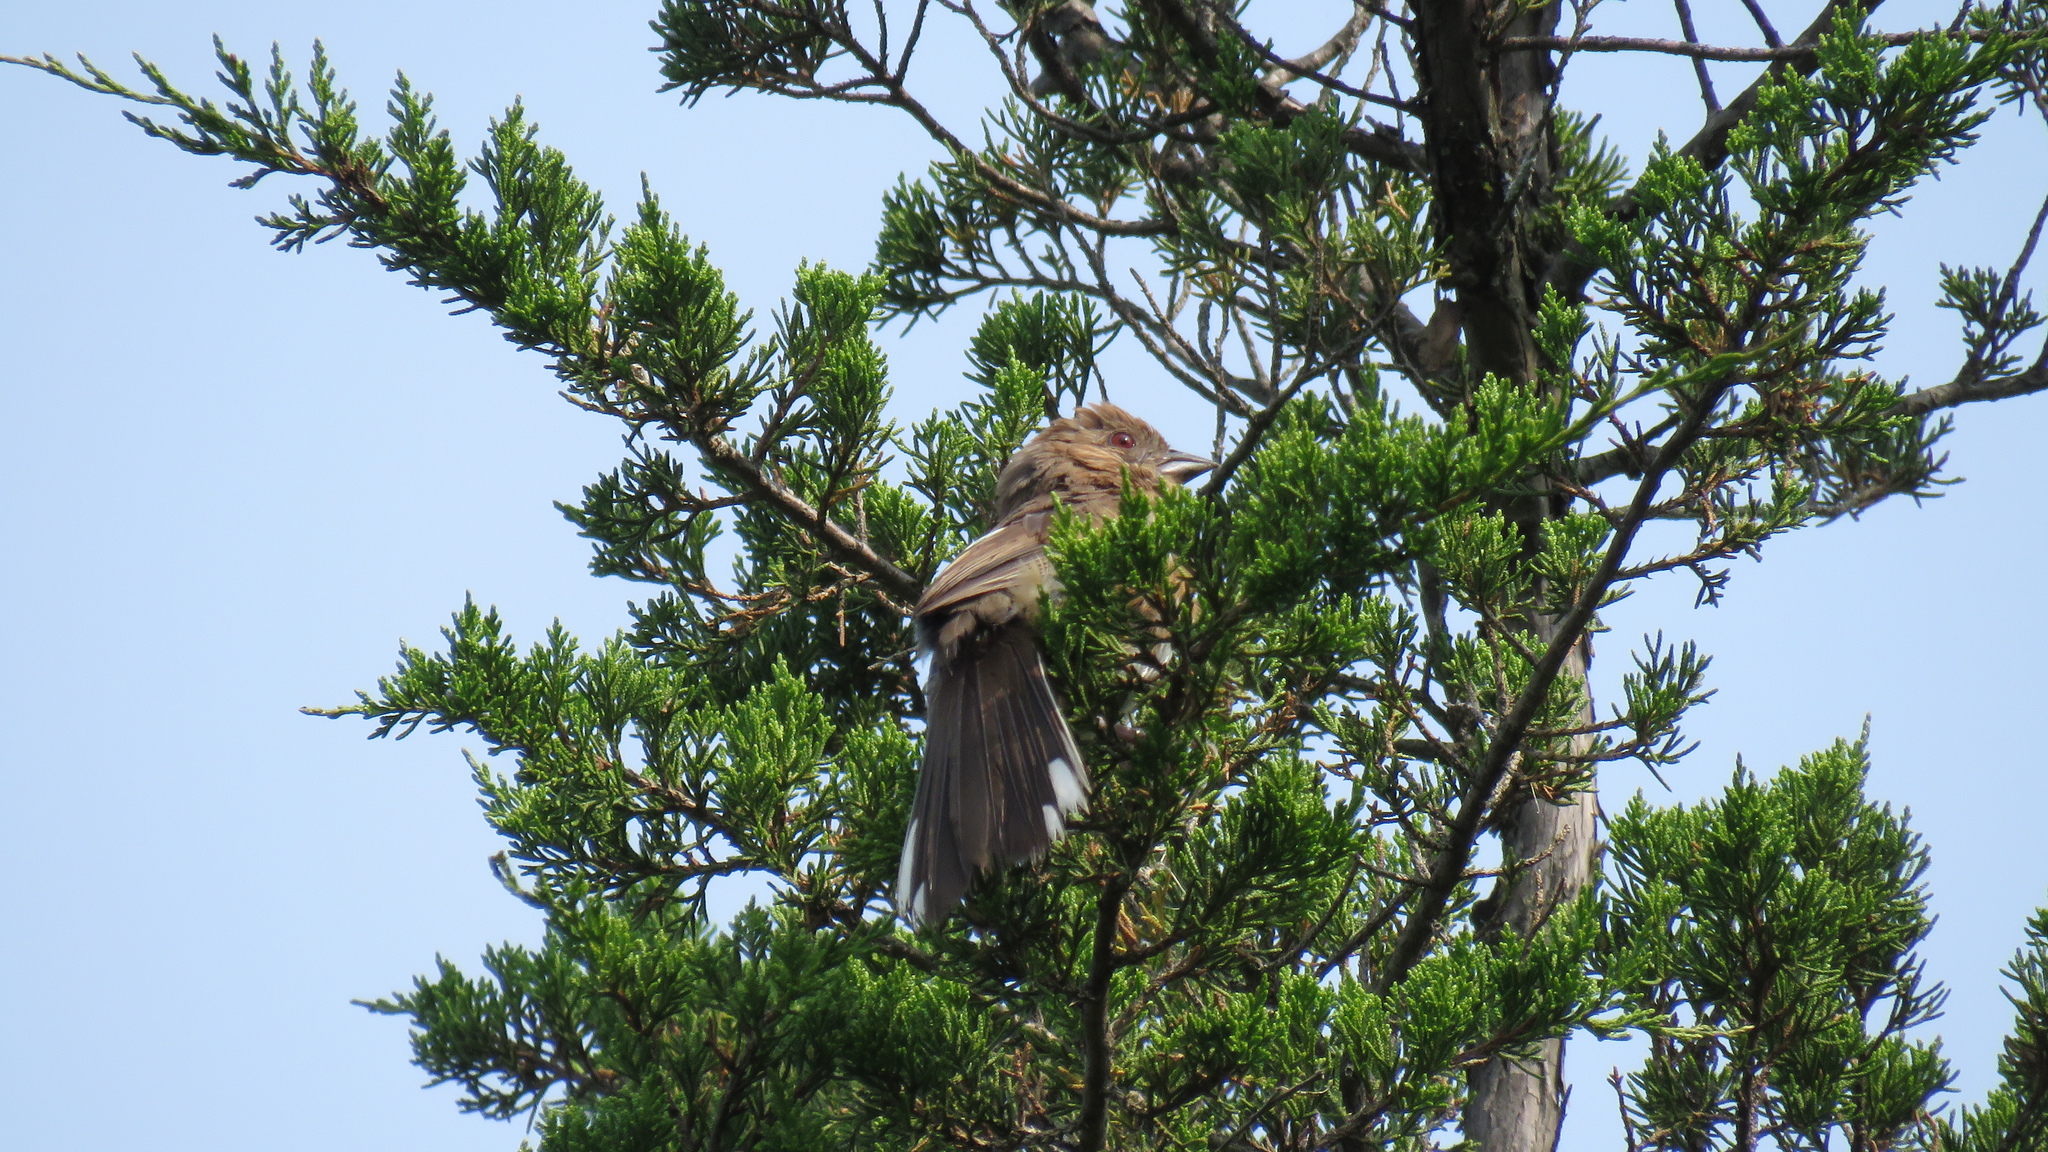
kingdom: Animalia
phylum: Chordata
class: Aves
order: Passeriformes
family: Passerellidae
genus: Pipilo
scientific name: Pipilo erythrophthalmus
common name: Eastern towhee
